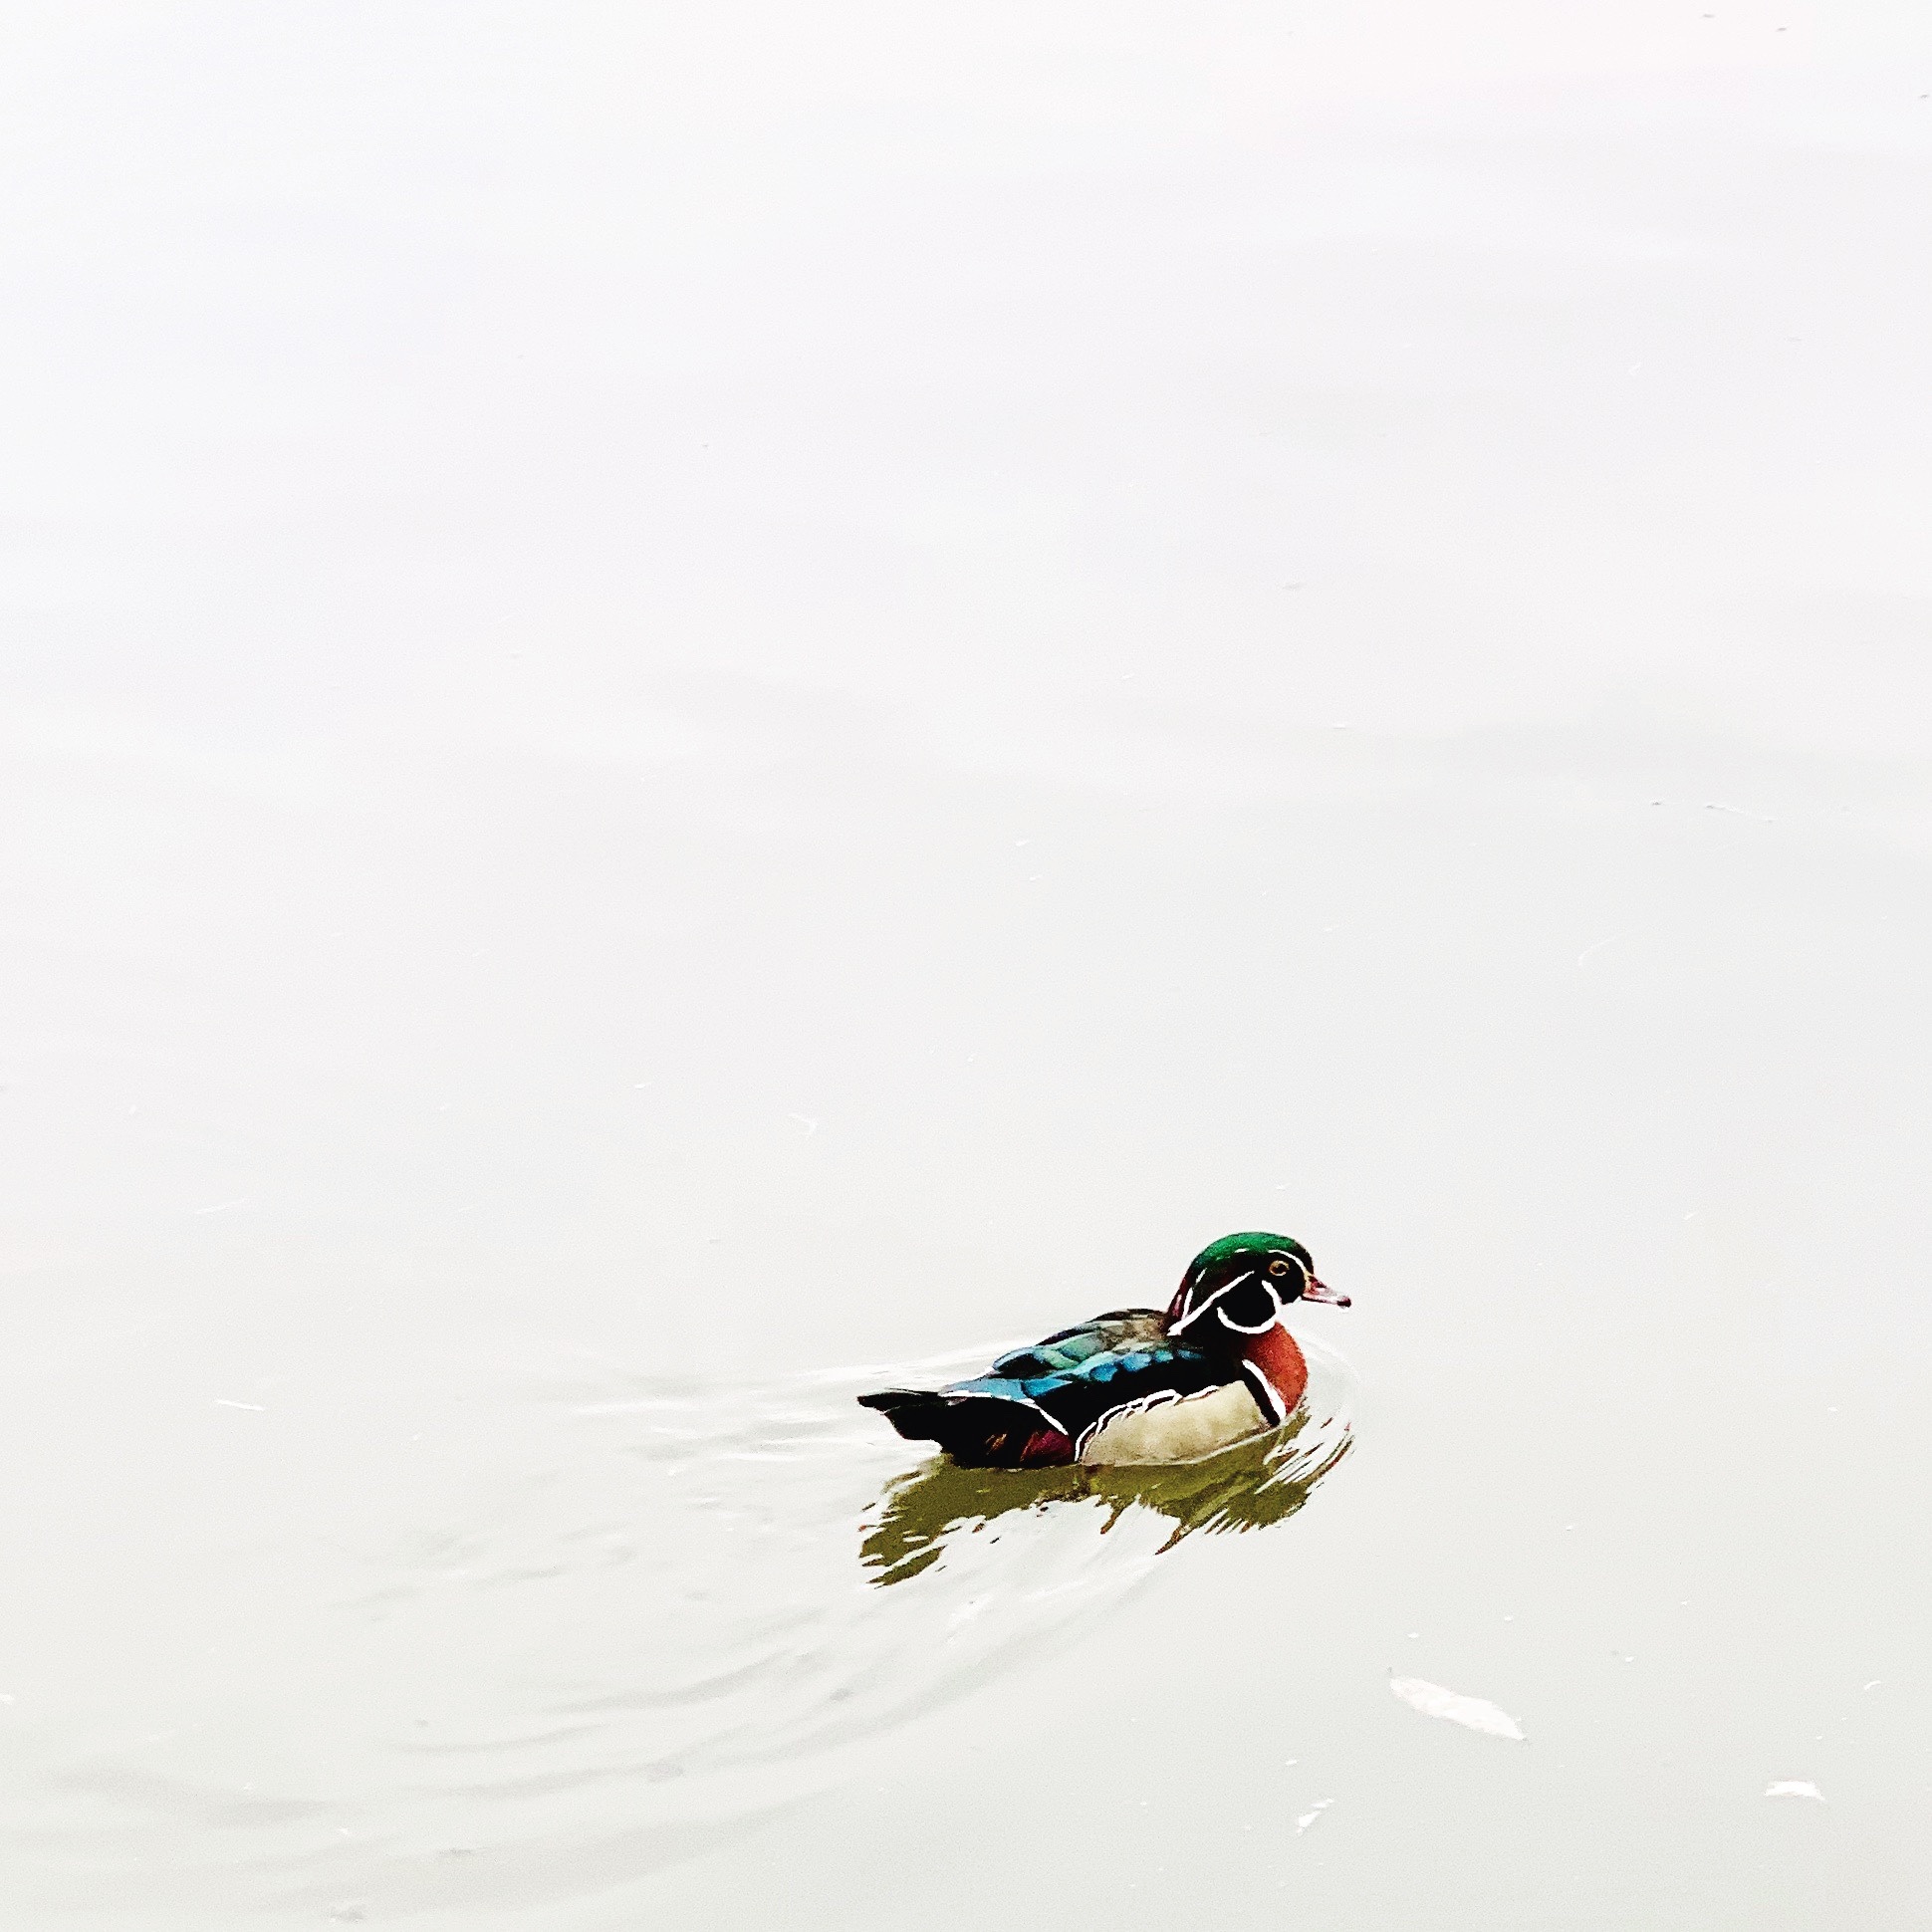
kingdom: Animalia
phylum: Chordata
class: Aves
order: Anseriformes
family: Anatidae
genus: Aix
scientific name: Aix sponsa
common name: Wood duck
